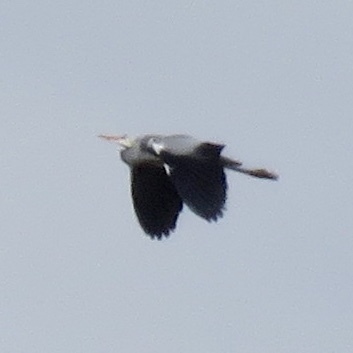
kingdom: Animalia
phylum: Chordata
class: Aves
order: Pelecaniformes
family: Ardeidae
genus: Ardea
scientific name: Ardea cinerea
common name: Grey heron
